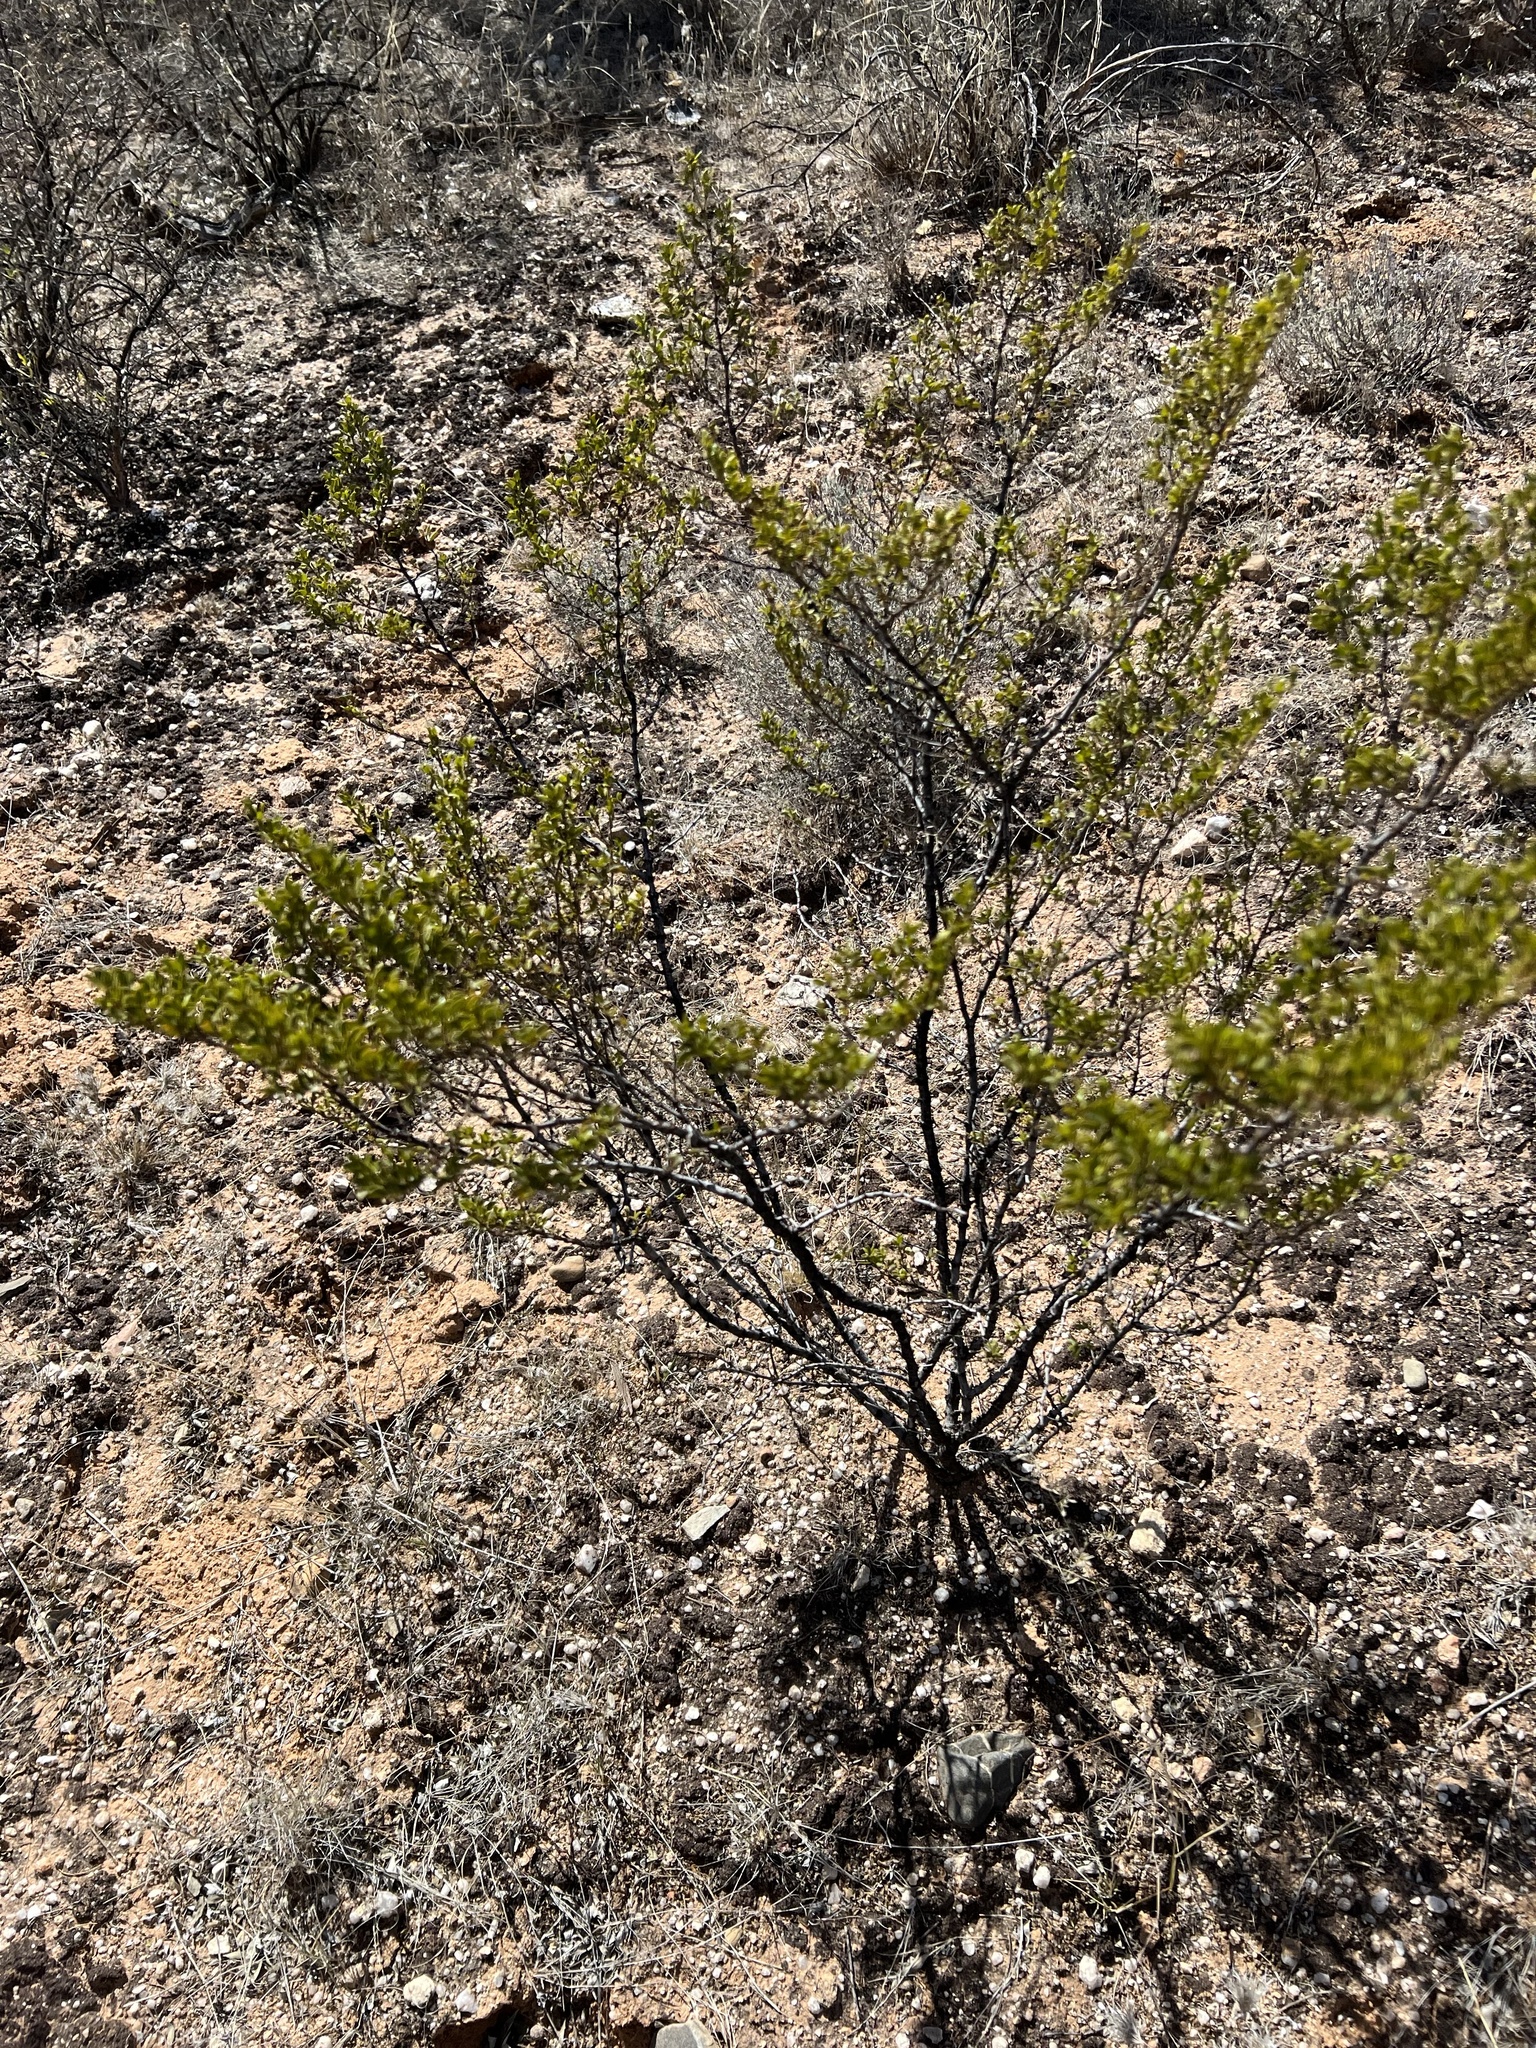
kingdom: Plantae
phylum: Tracheophyta
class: Magnoliopsida
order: Zygophyllales
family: Zygophyllaceae
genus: Larrea
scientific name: Larrea tridentata
